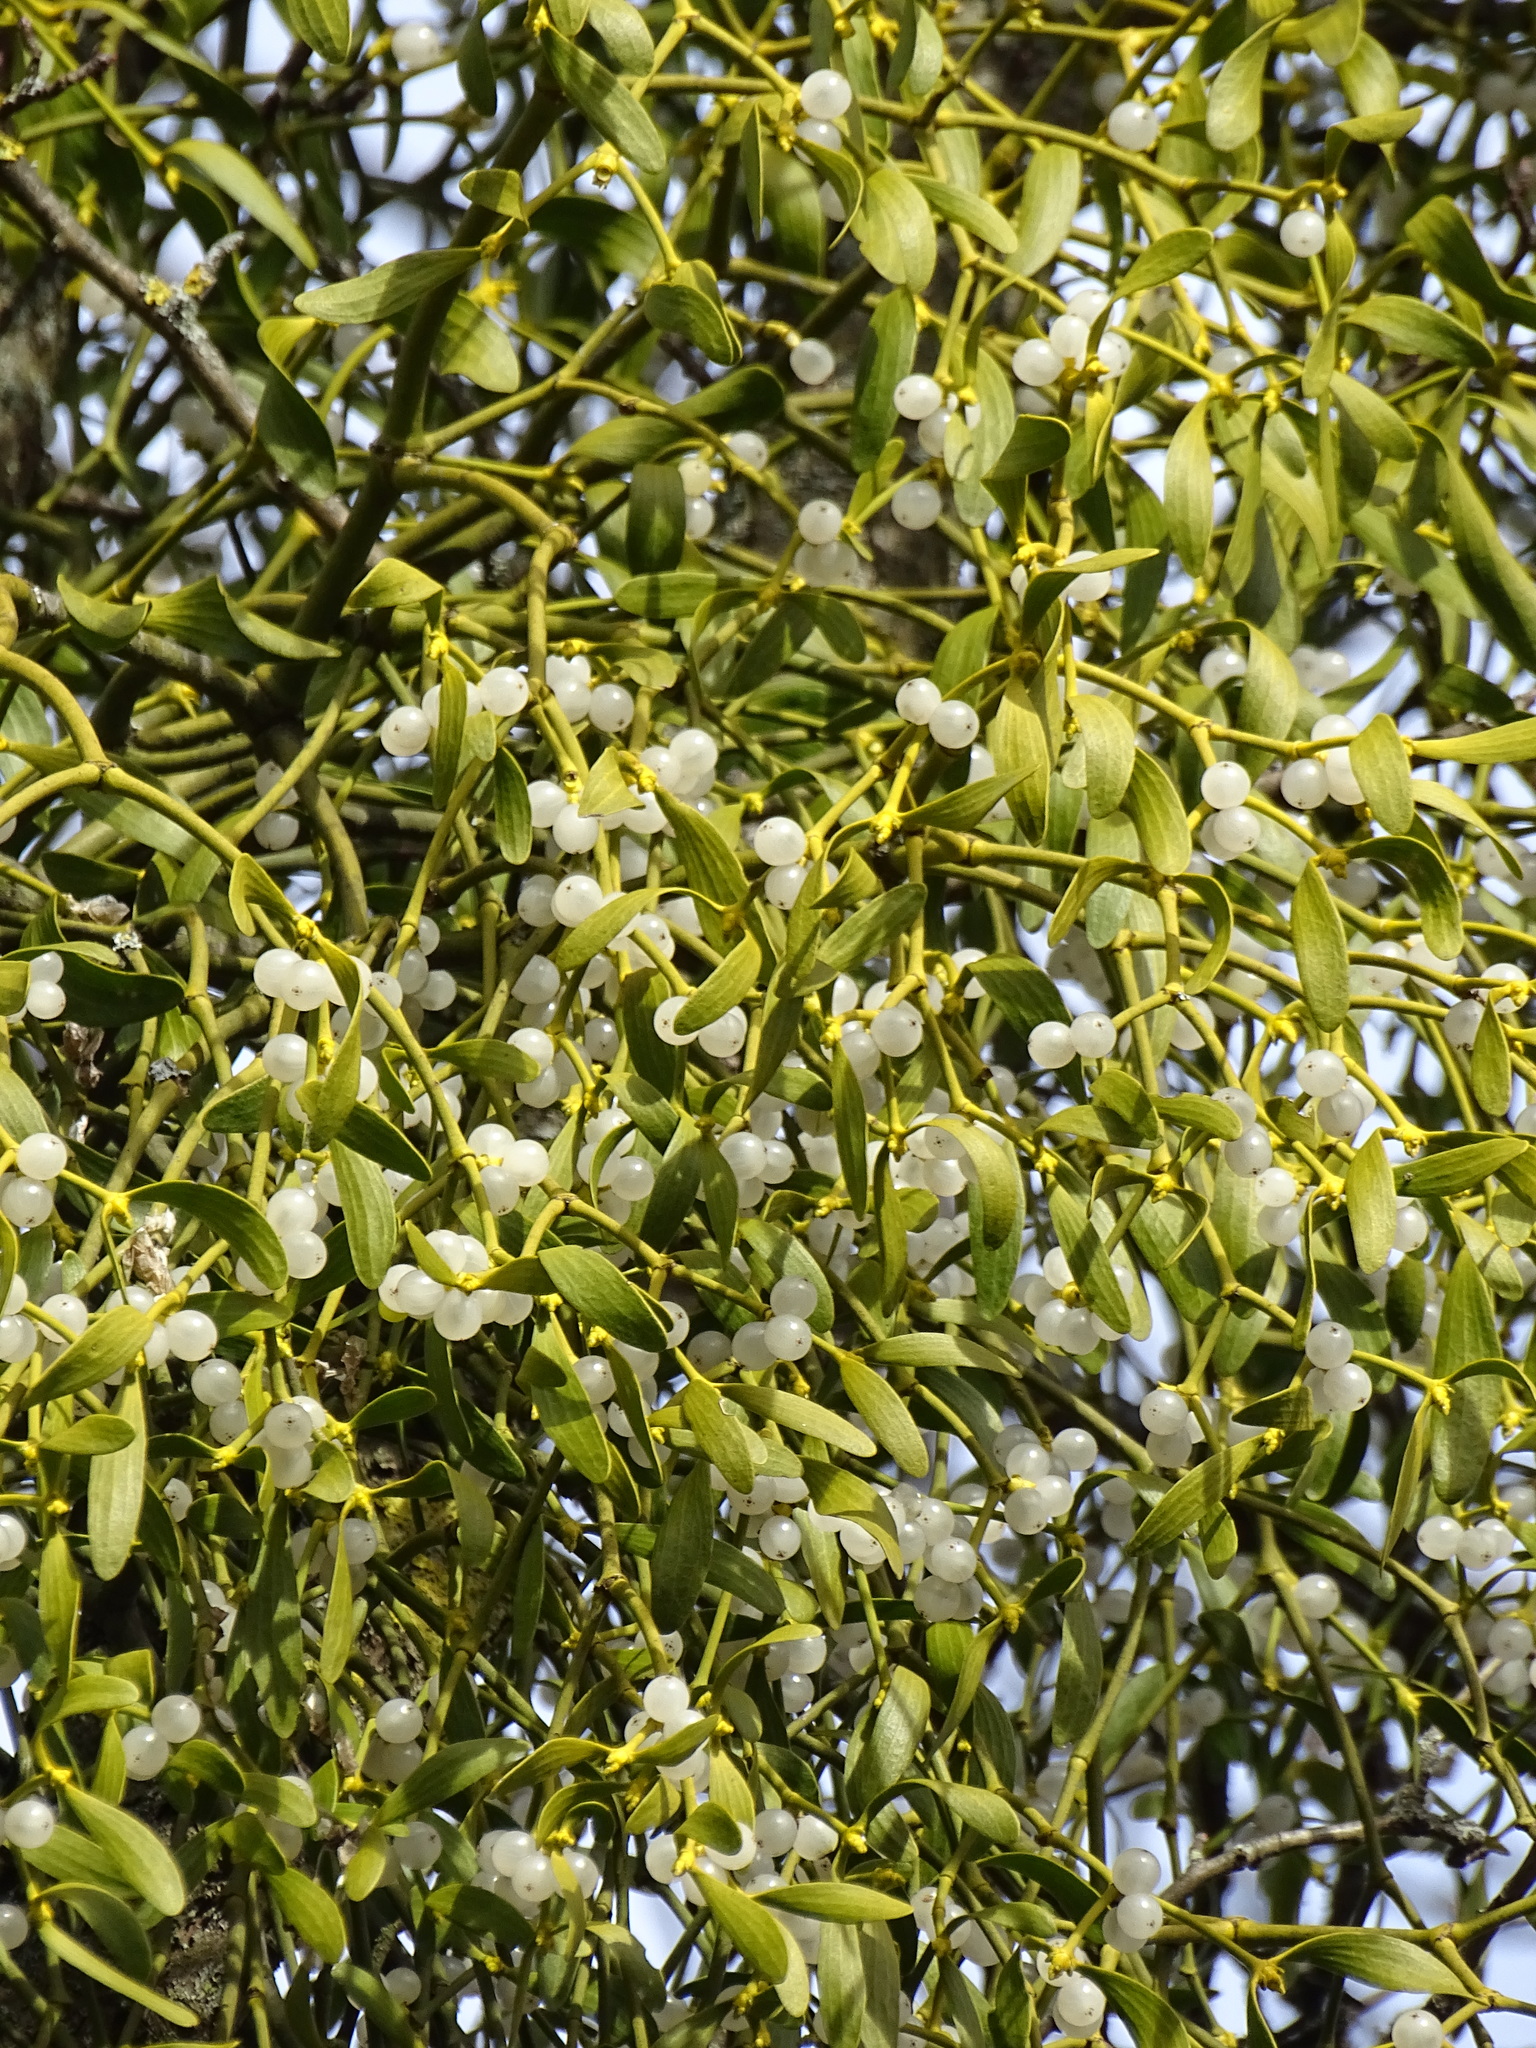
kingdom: Plantae
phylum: Tracheophyta
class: Magnoliopsida
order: Santalales
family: Viscaceae
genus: Viscum
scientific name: Viscum album
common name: Mistletoe
